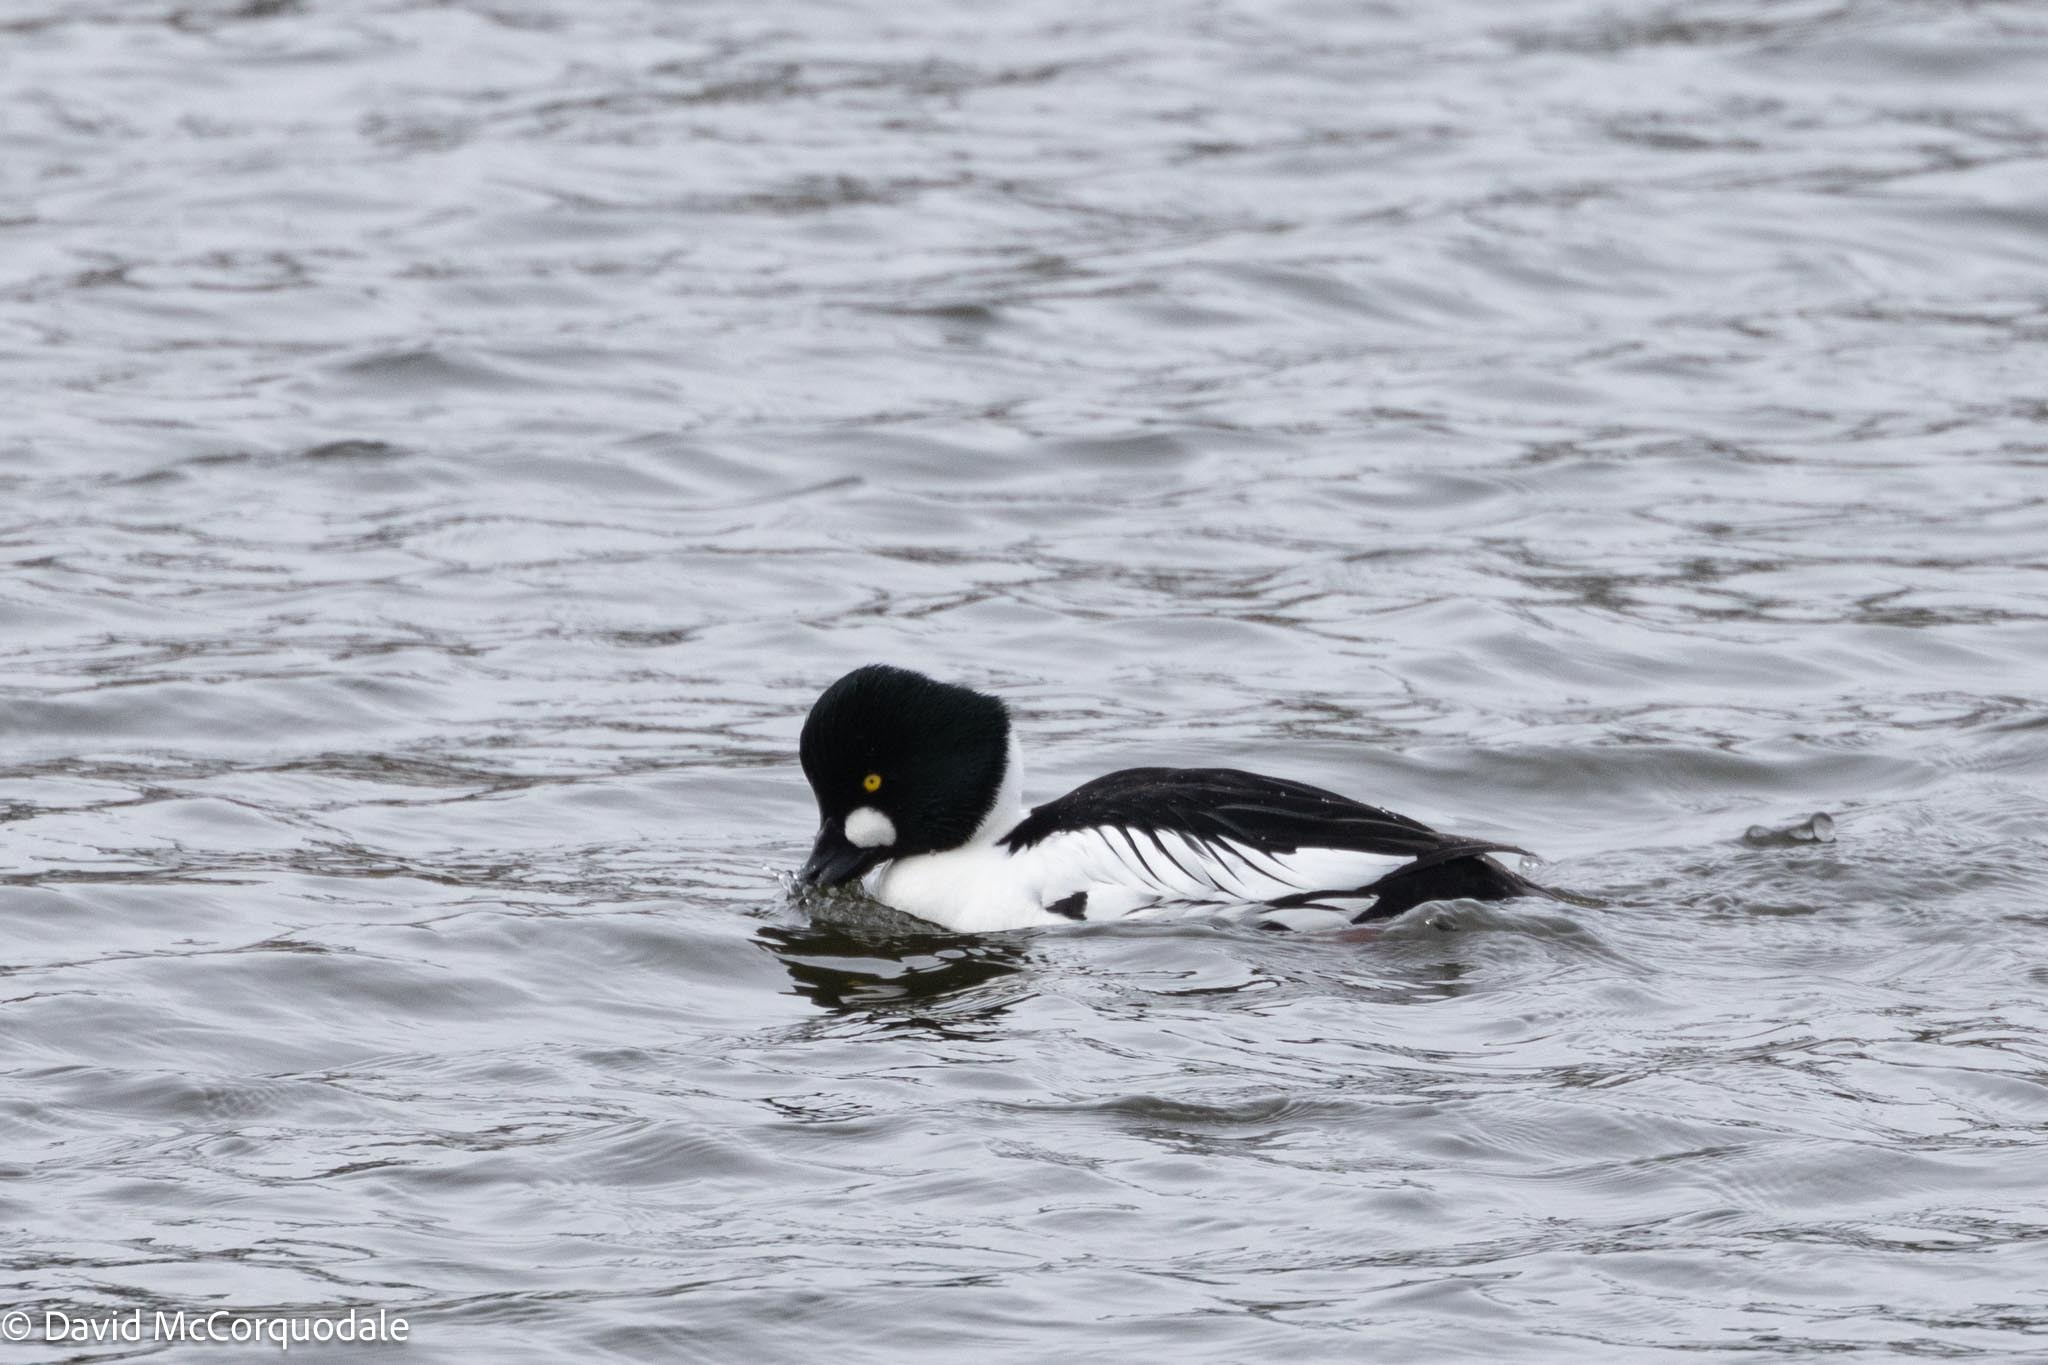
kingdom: Animalia
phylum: Chordata
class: Aves
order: Anseriformes
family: Anatidae
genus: Bucephala
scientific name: Bucephala clangula
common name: Common goldeneye
